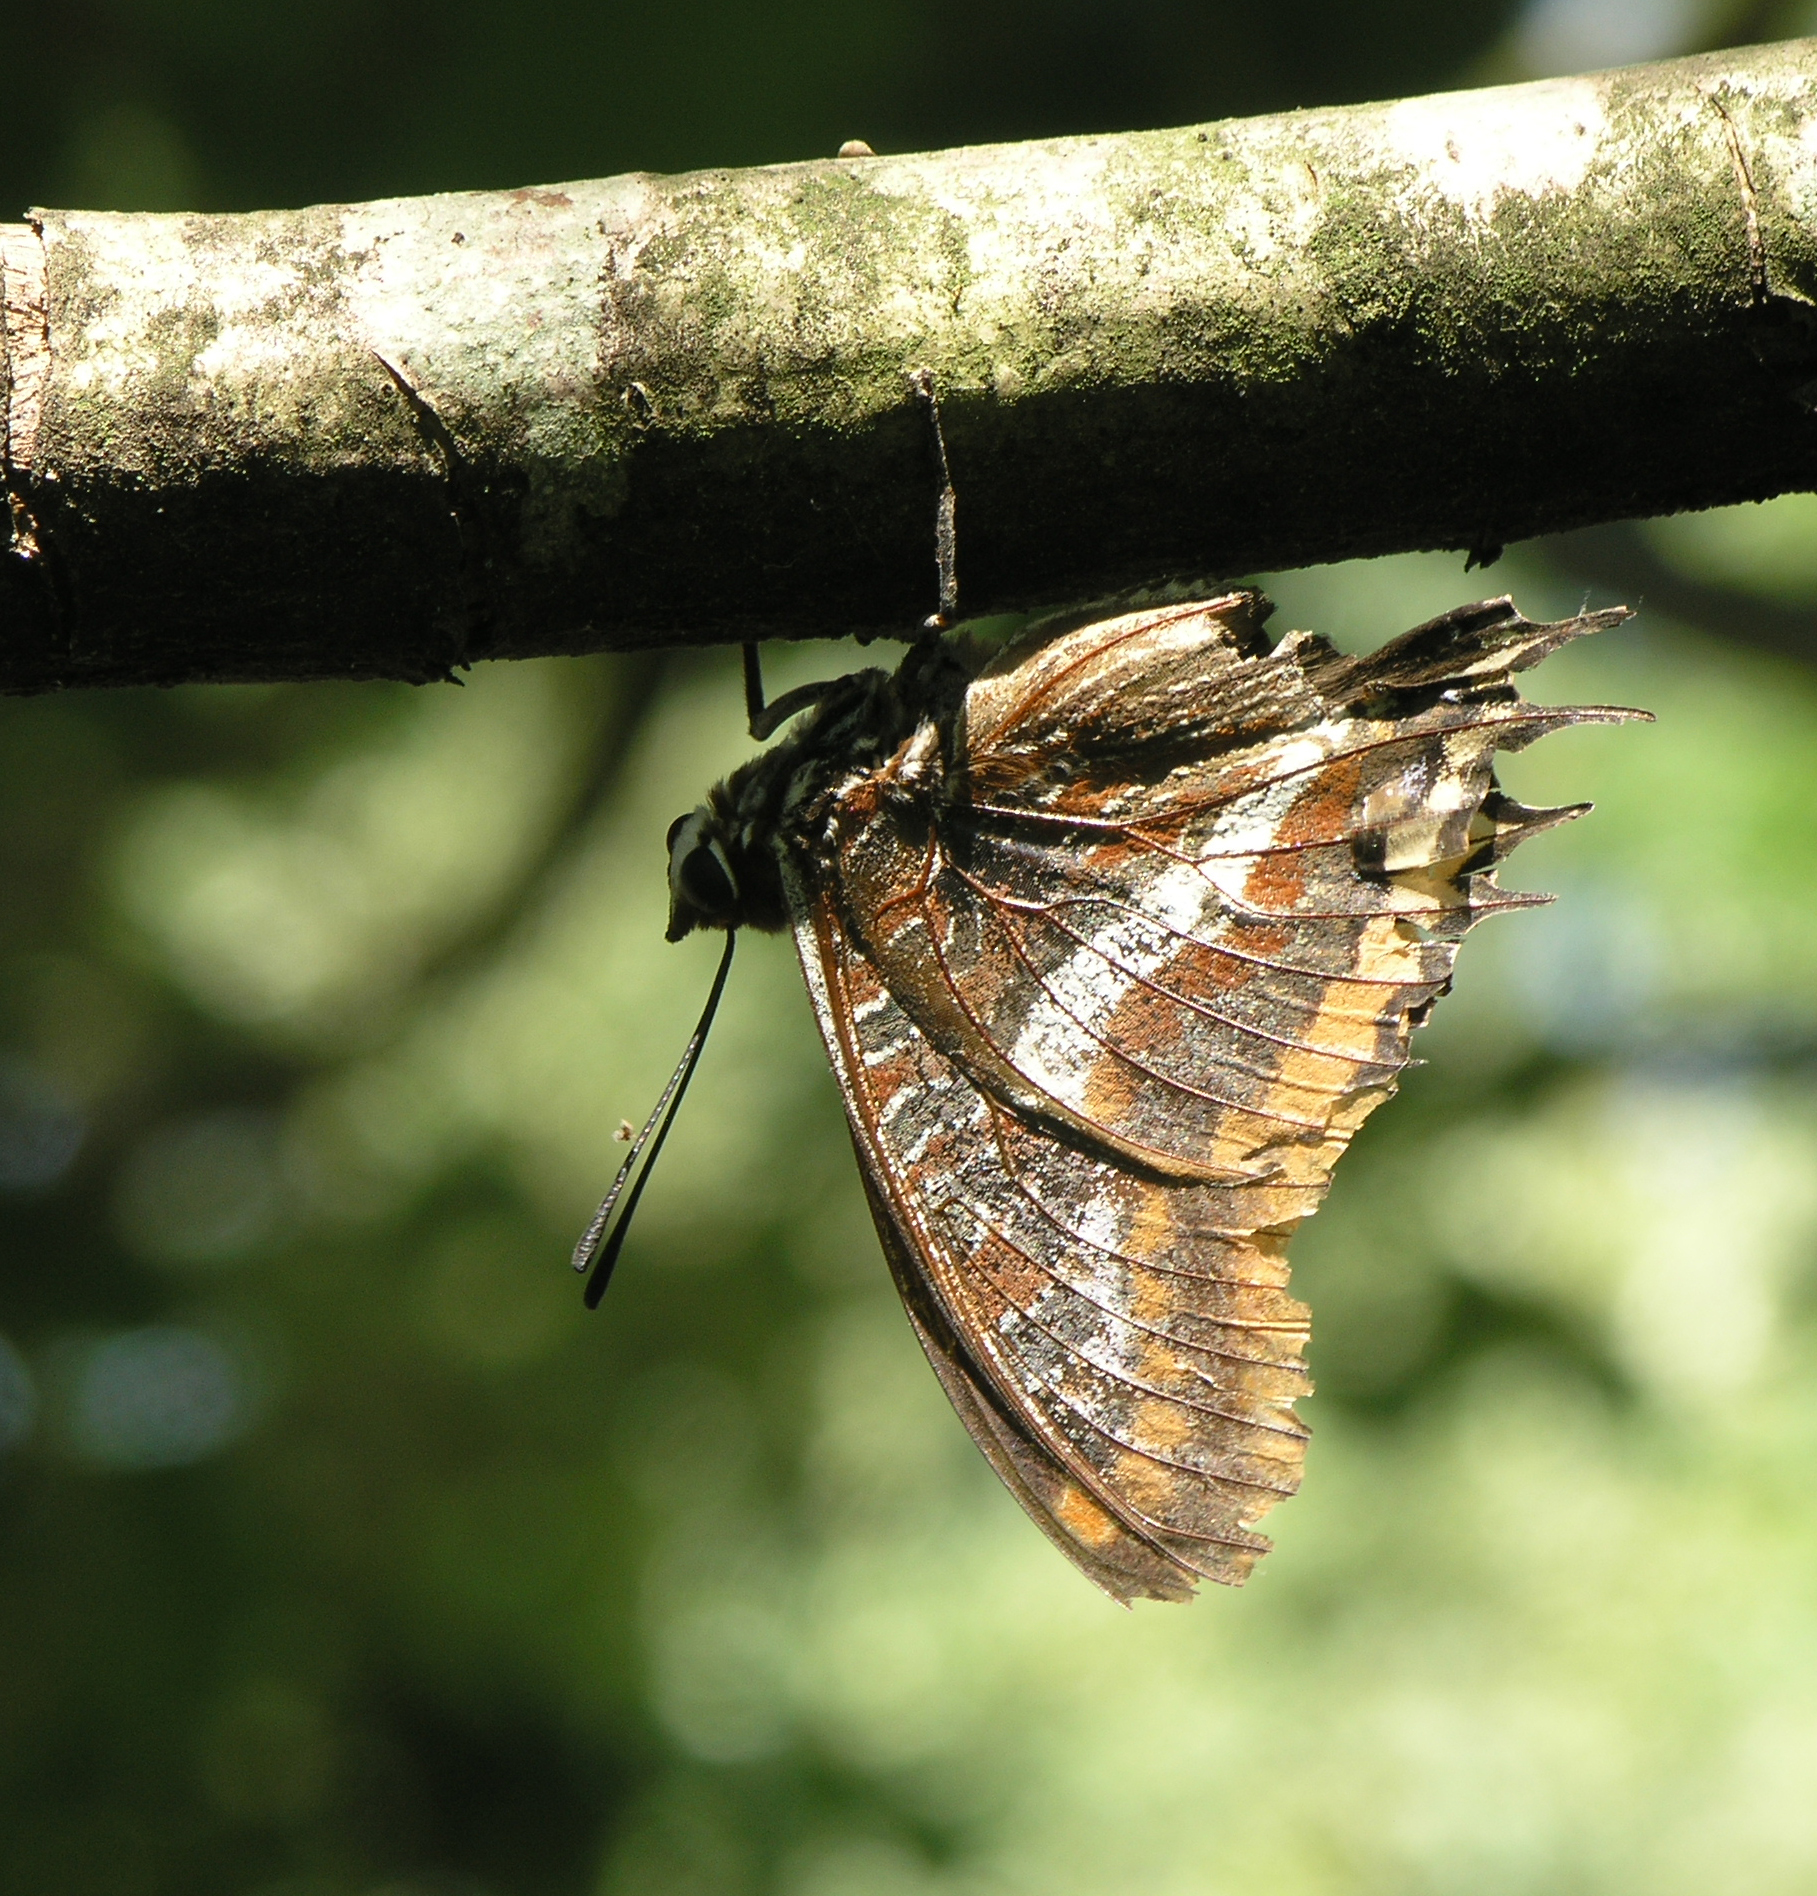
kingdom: Animalia
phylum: Arthropoda
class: Insecta
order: Lepidoptera
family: Nymphalidae
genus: Charaxes
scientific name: Charaxes jasius
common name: Two tailed pasha
